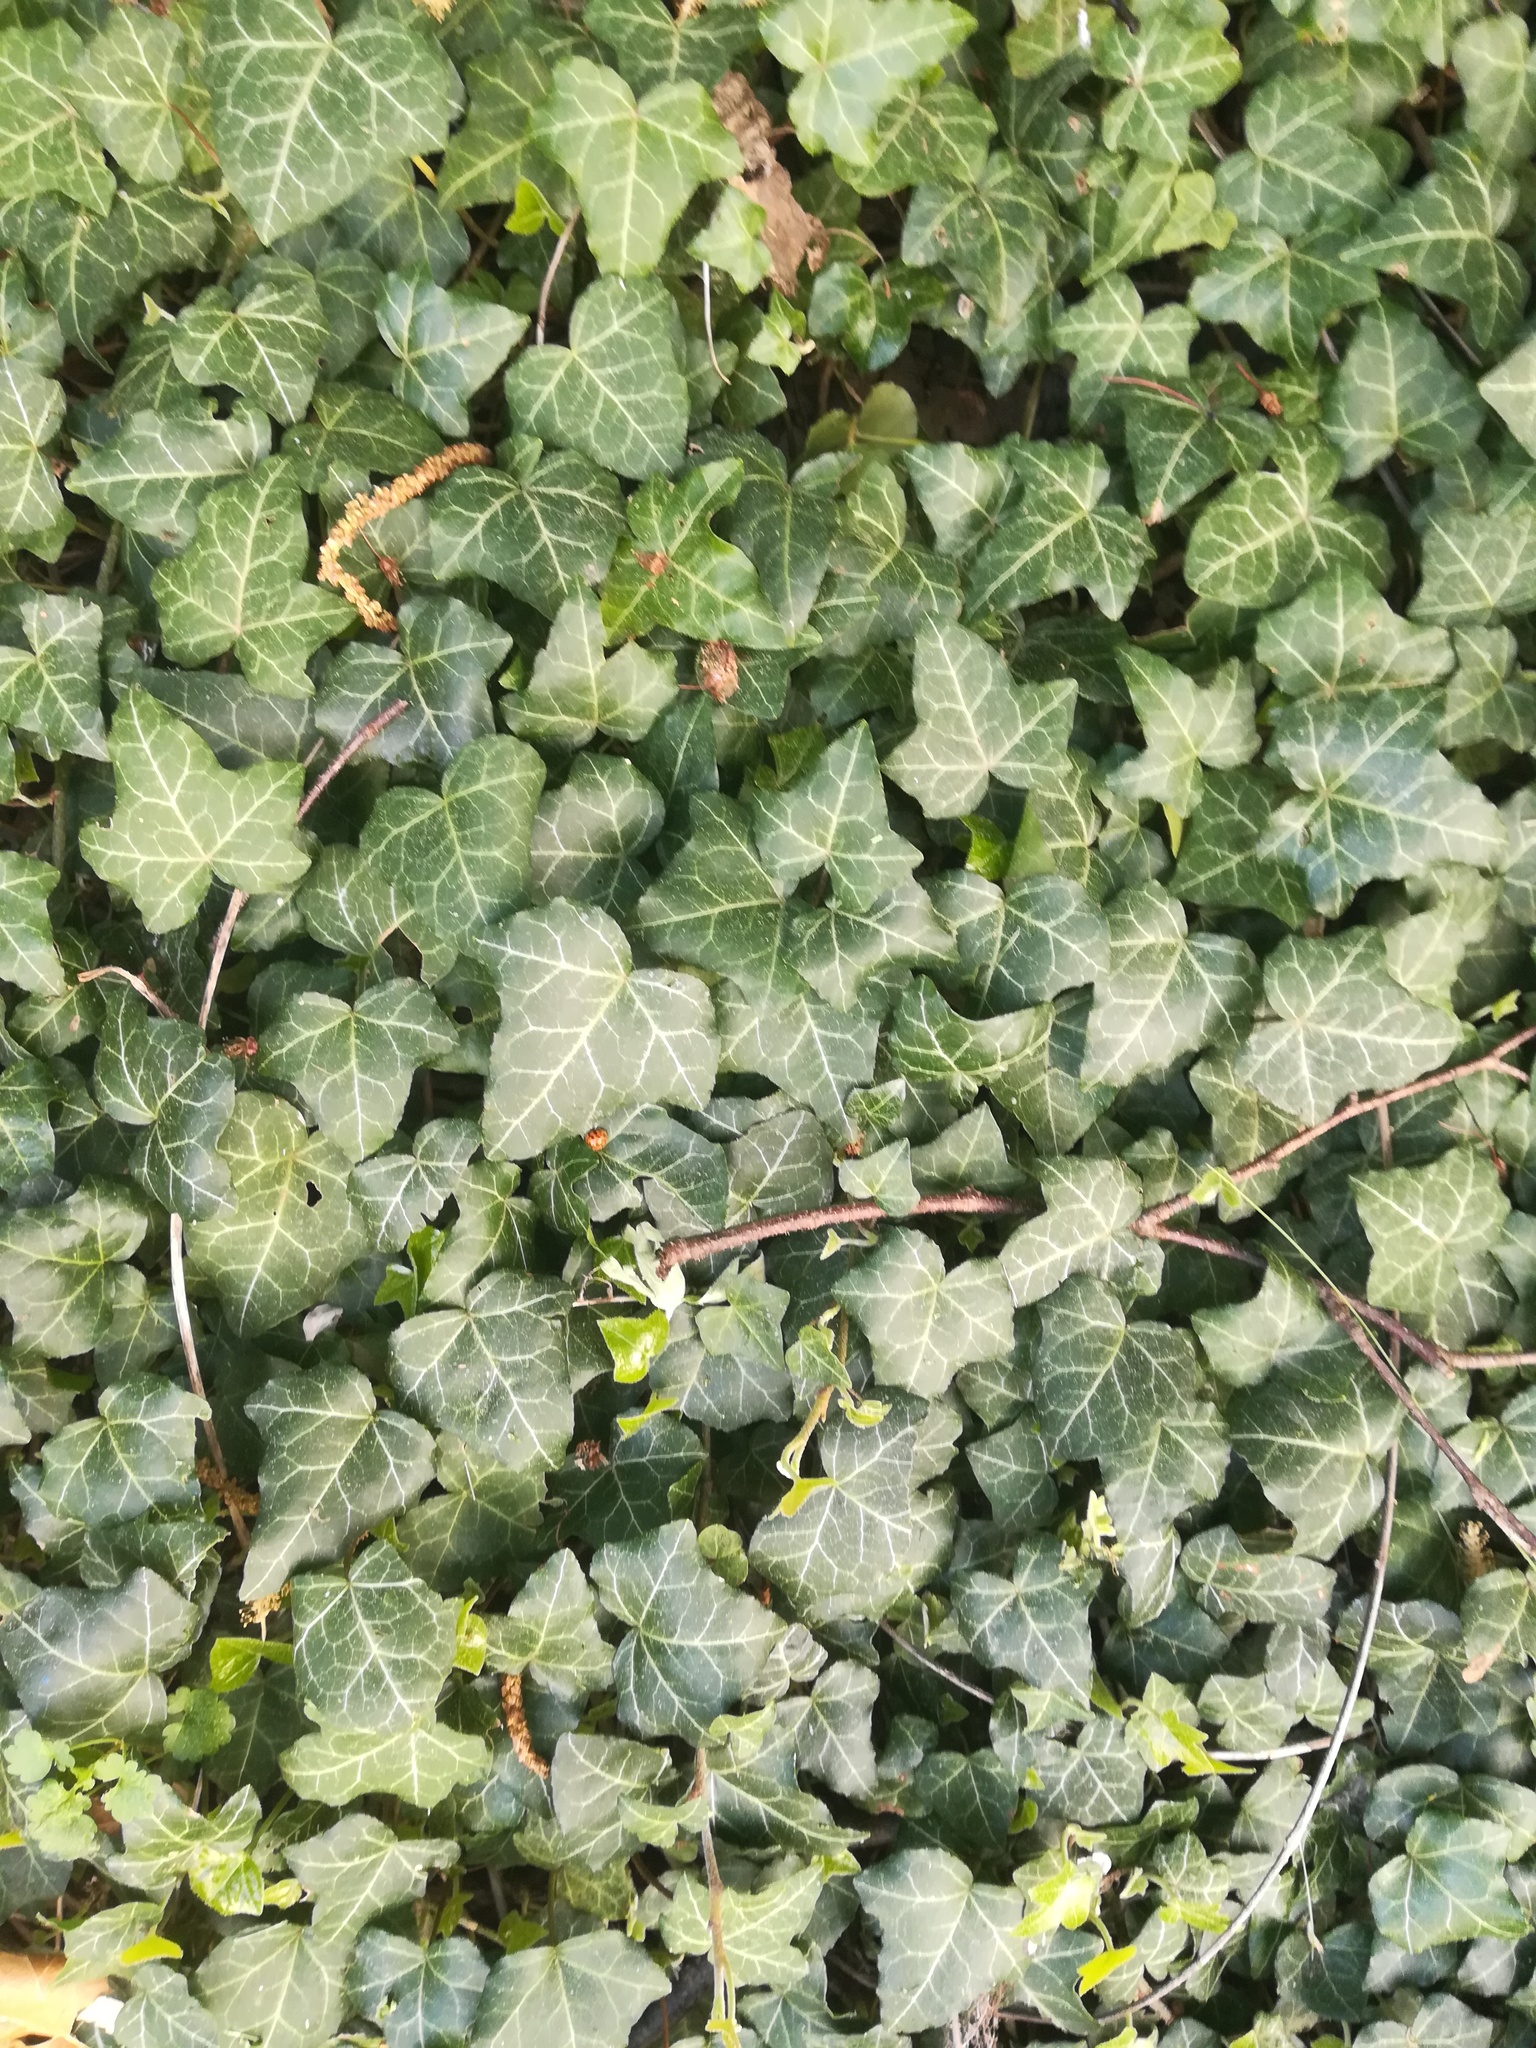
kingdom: Plantae
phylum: Tracheophyta
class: Magnoliopsida
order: Apiales
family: Araliaceae
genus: Hedera
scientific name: Hedera helix
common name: Ivy
